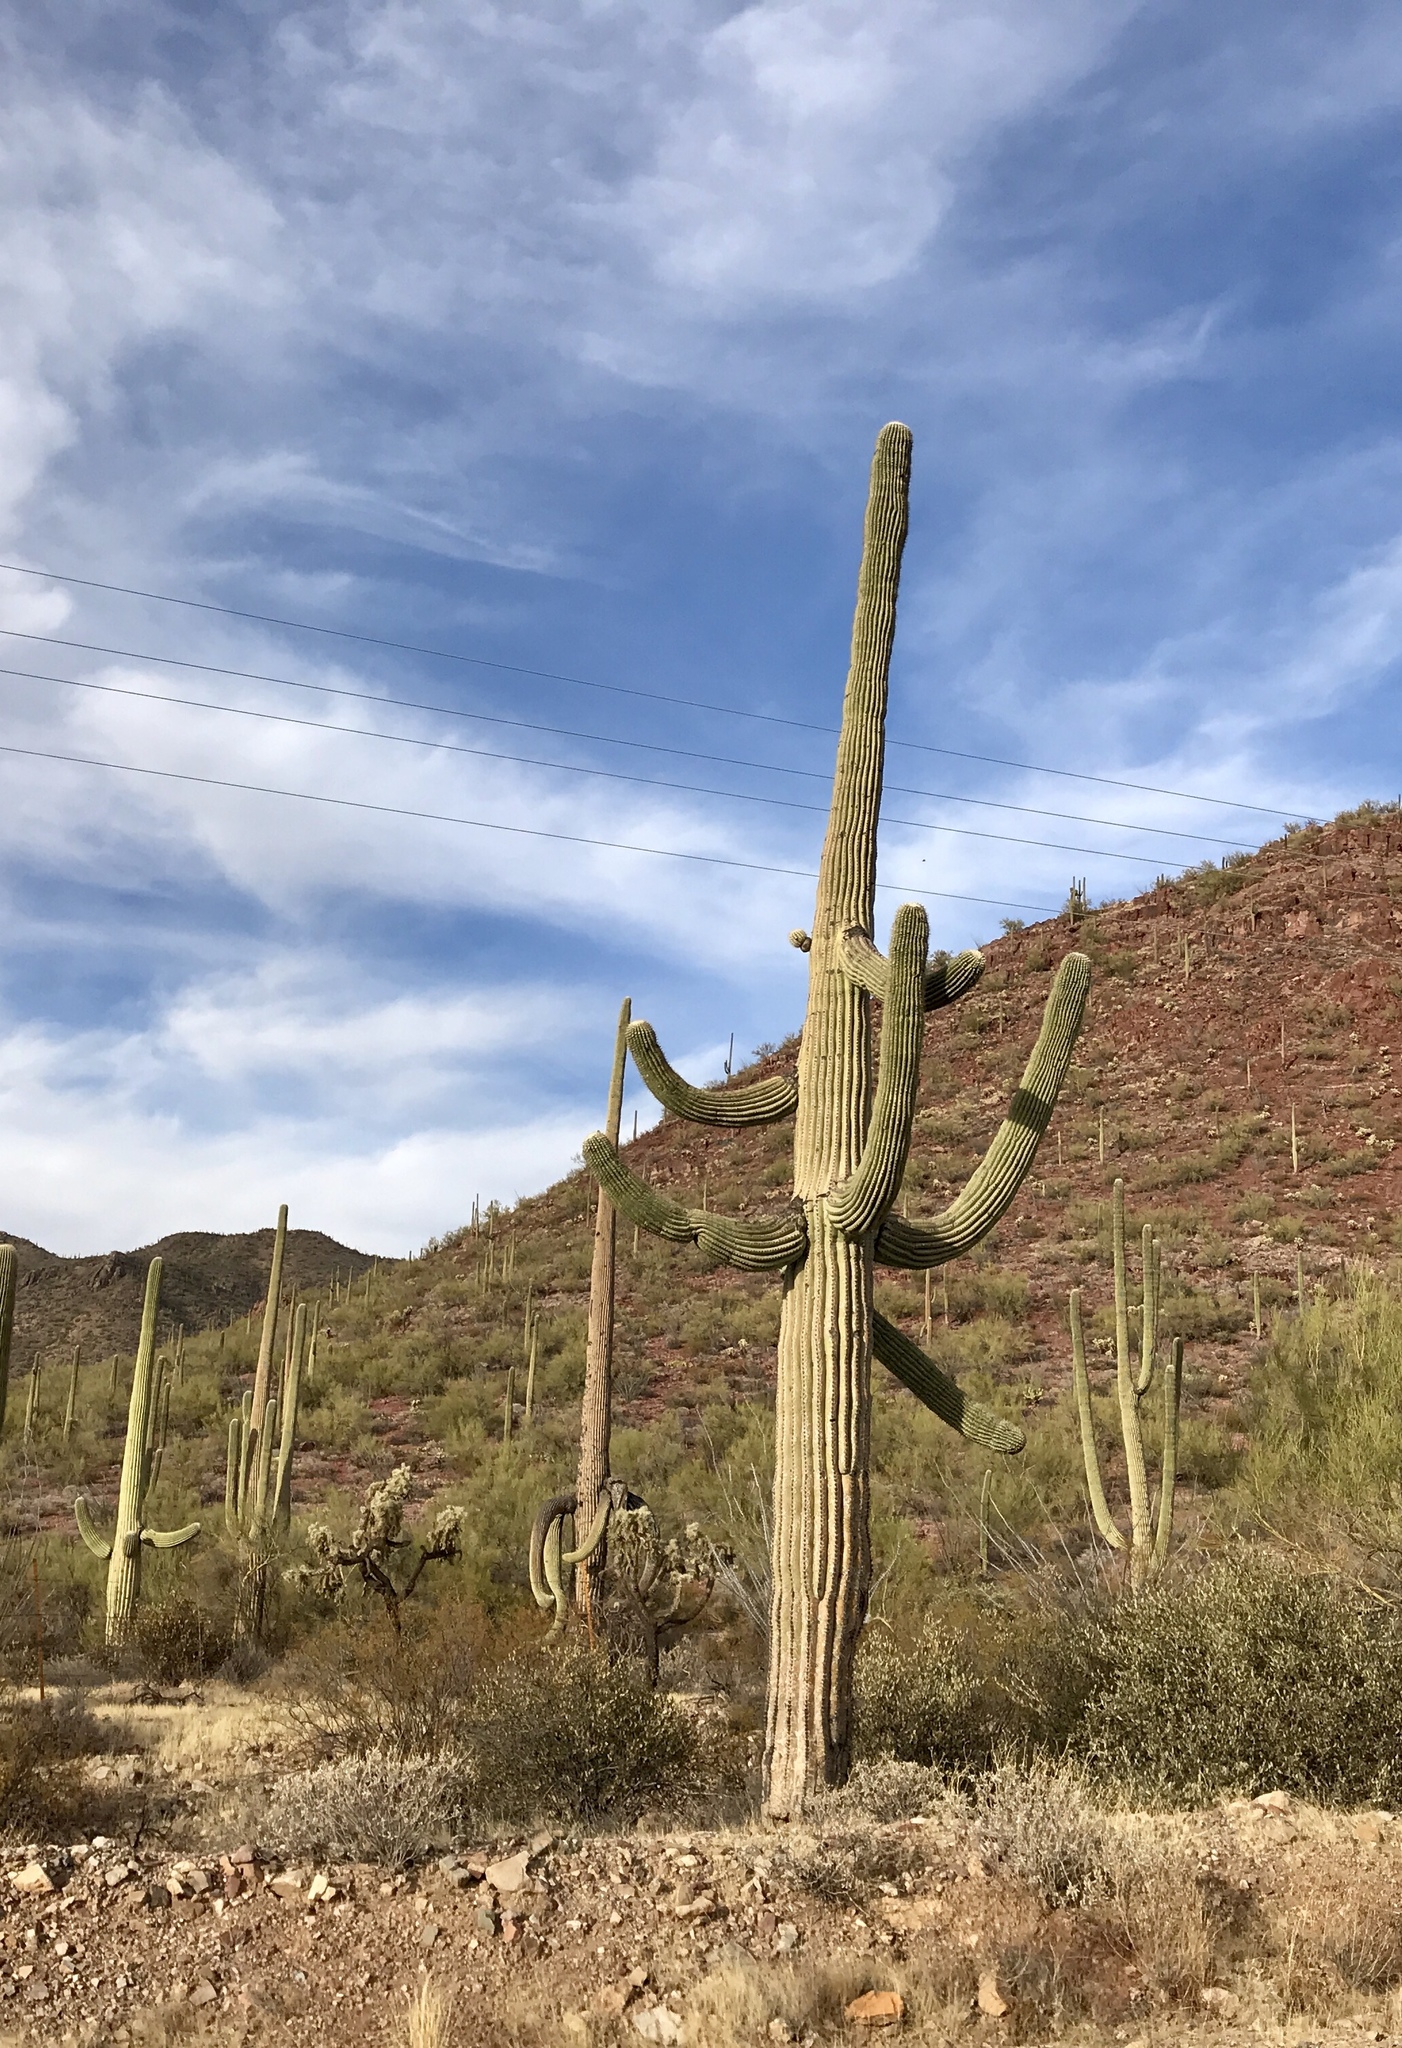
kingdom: Plantae
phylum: Tracheophyta
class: Magnoliopsida
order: Caryophyllales
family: Cactaceae
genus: Carnegiea
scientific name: Carnegiea gigantea
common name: Saguaro
